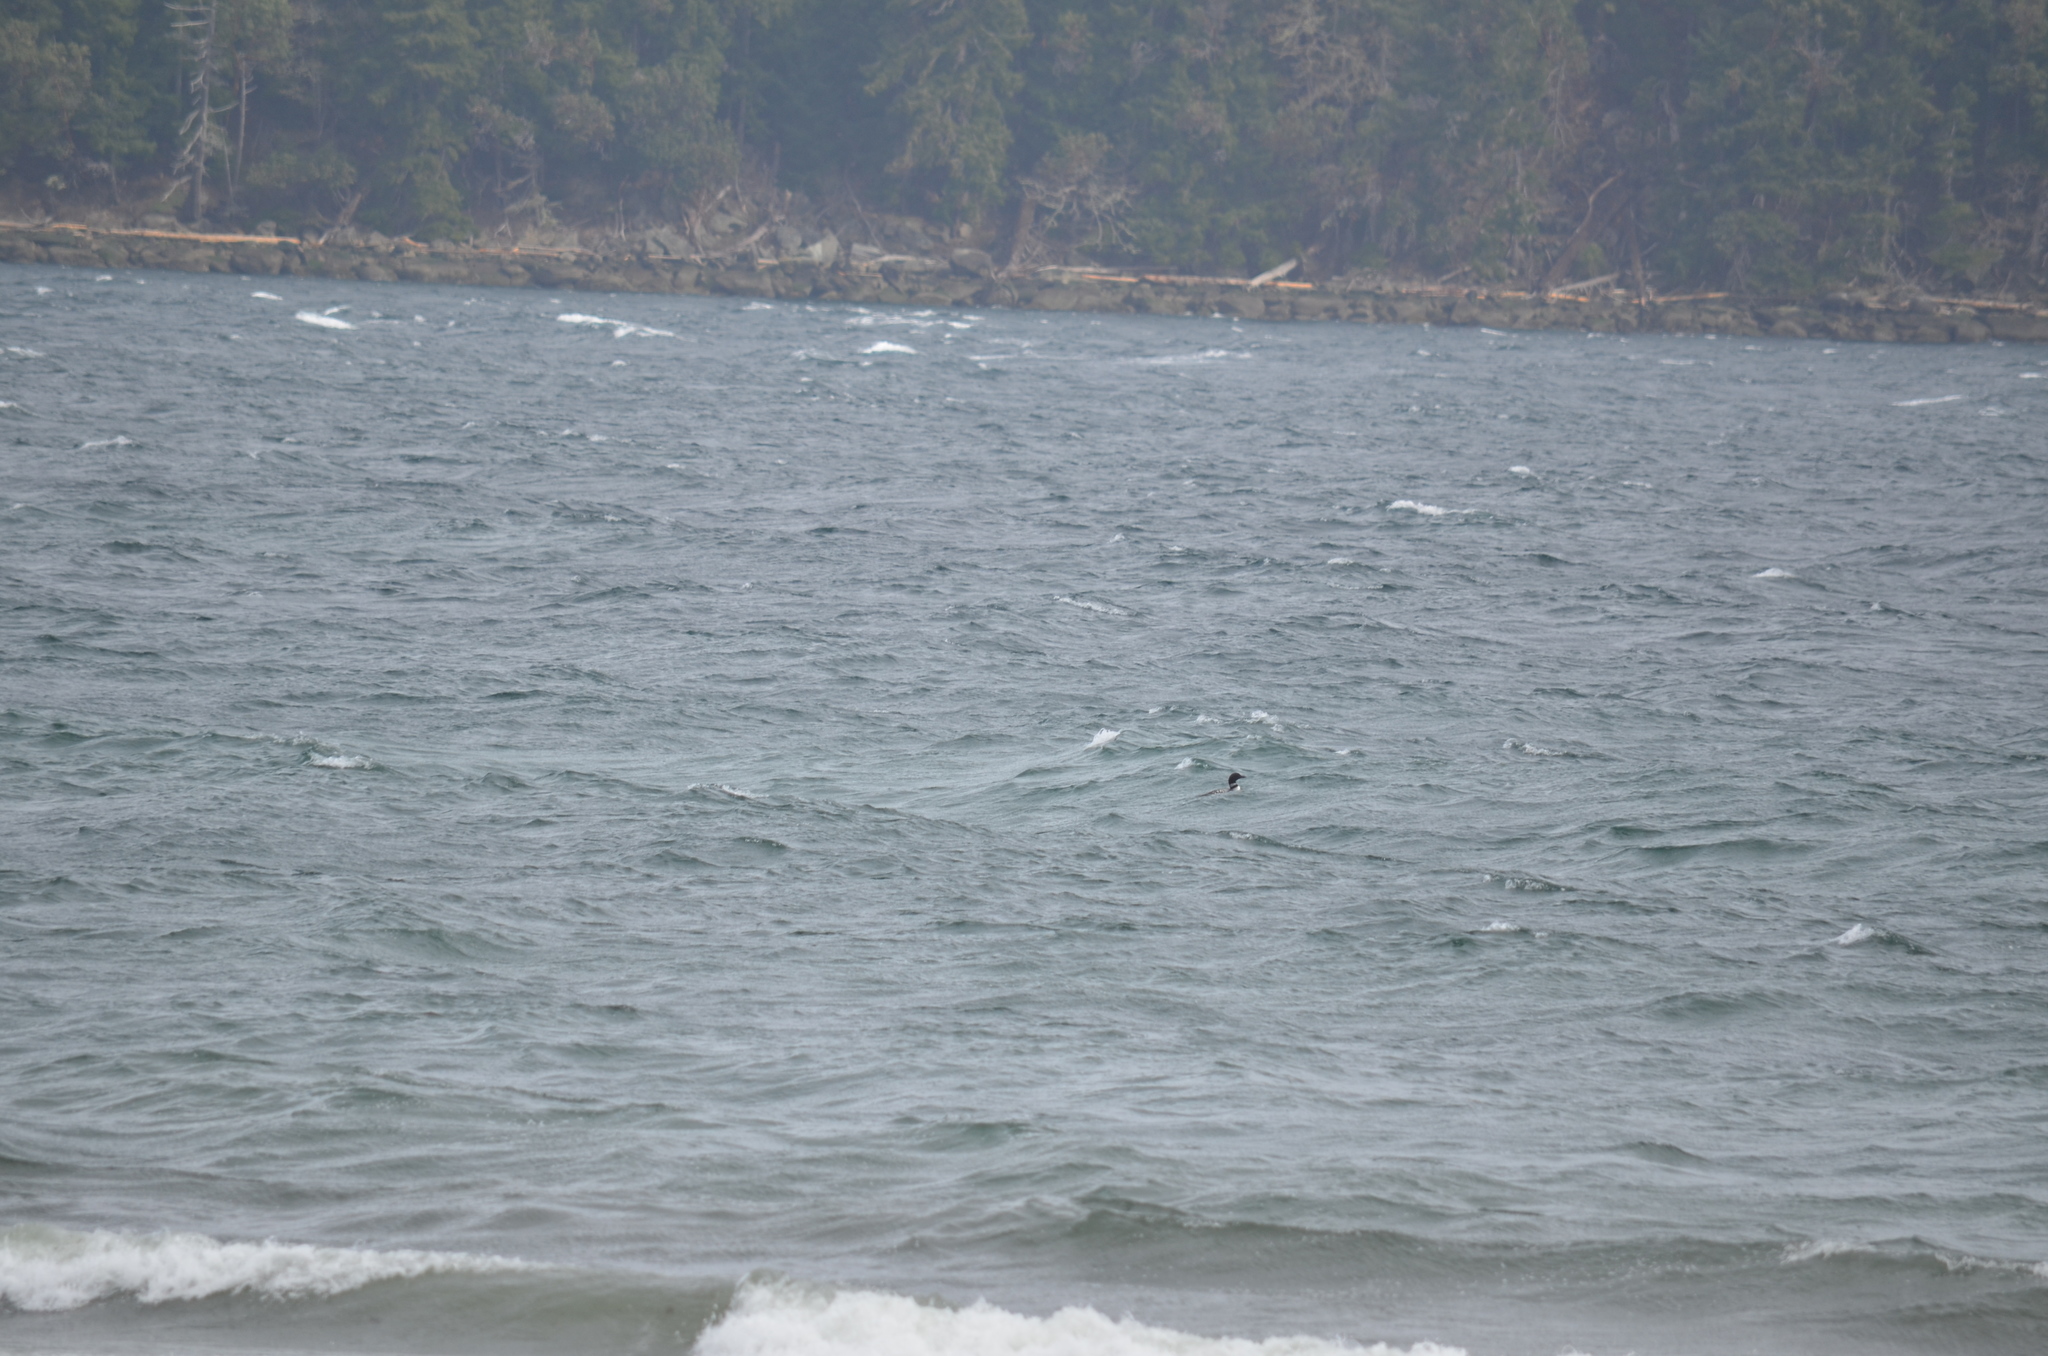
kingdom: Animalia
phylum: Chordata
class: Aves
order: Gaviiformes
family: Gaviidae
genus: Gavia
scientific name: Gavia immer
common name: Common loon
